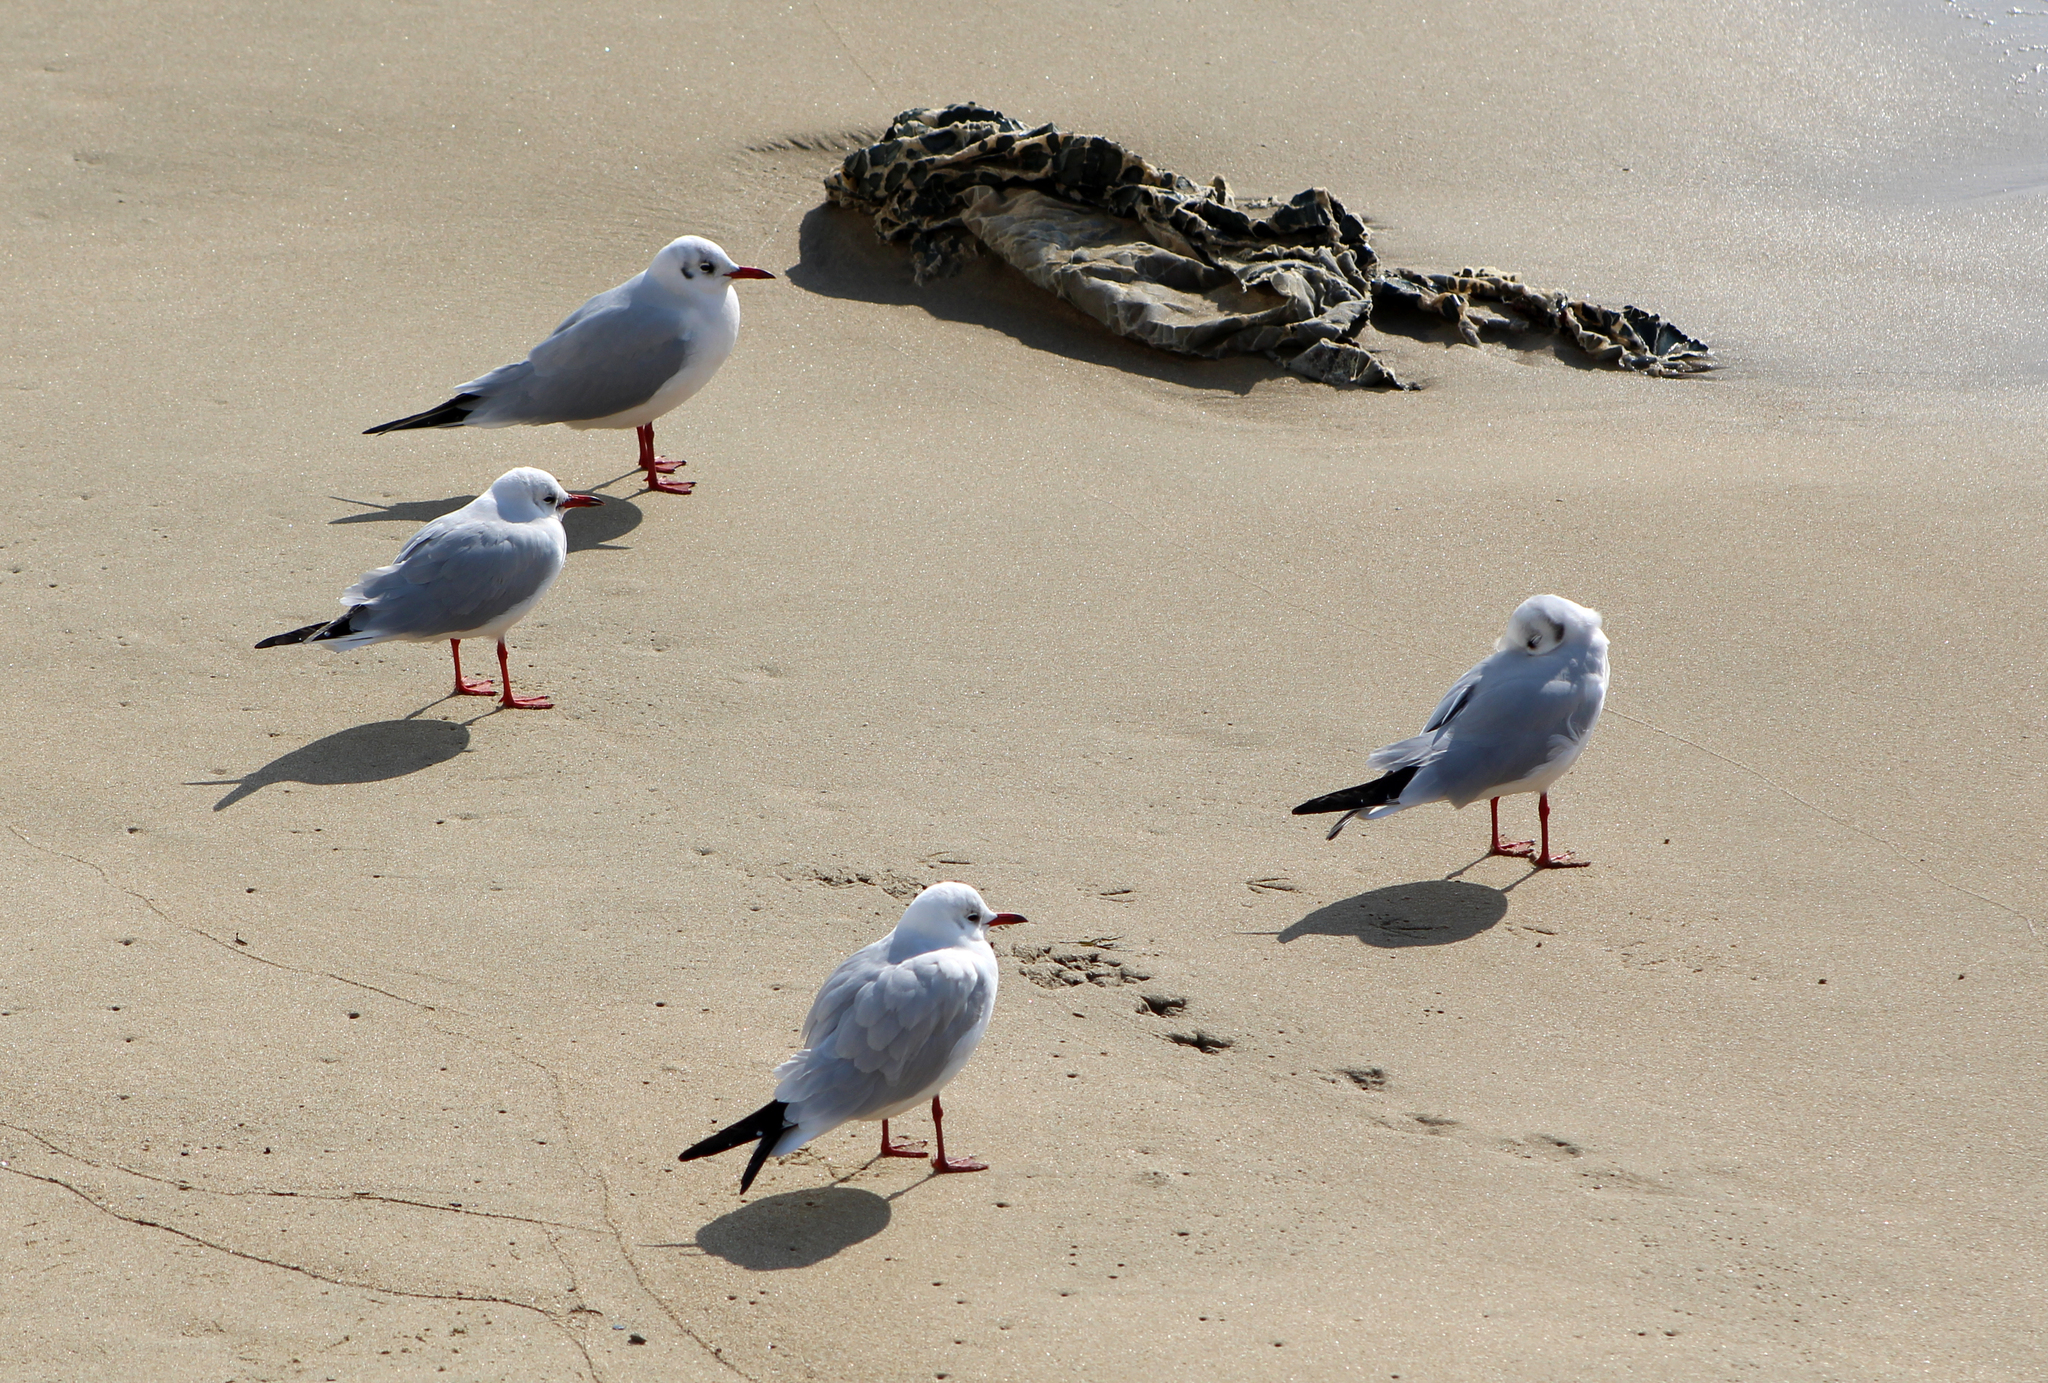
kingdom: Animalia
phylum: Chordata
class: Aves
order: Charadriiformes
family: Laridae
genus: Chroicocephalus
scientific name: Chroicocephalus ridibundus
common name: Black-headed gull
